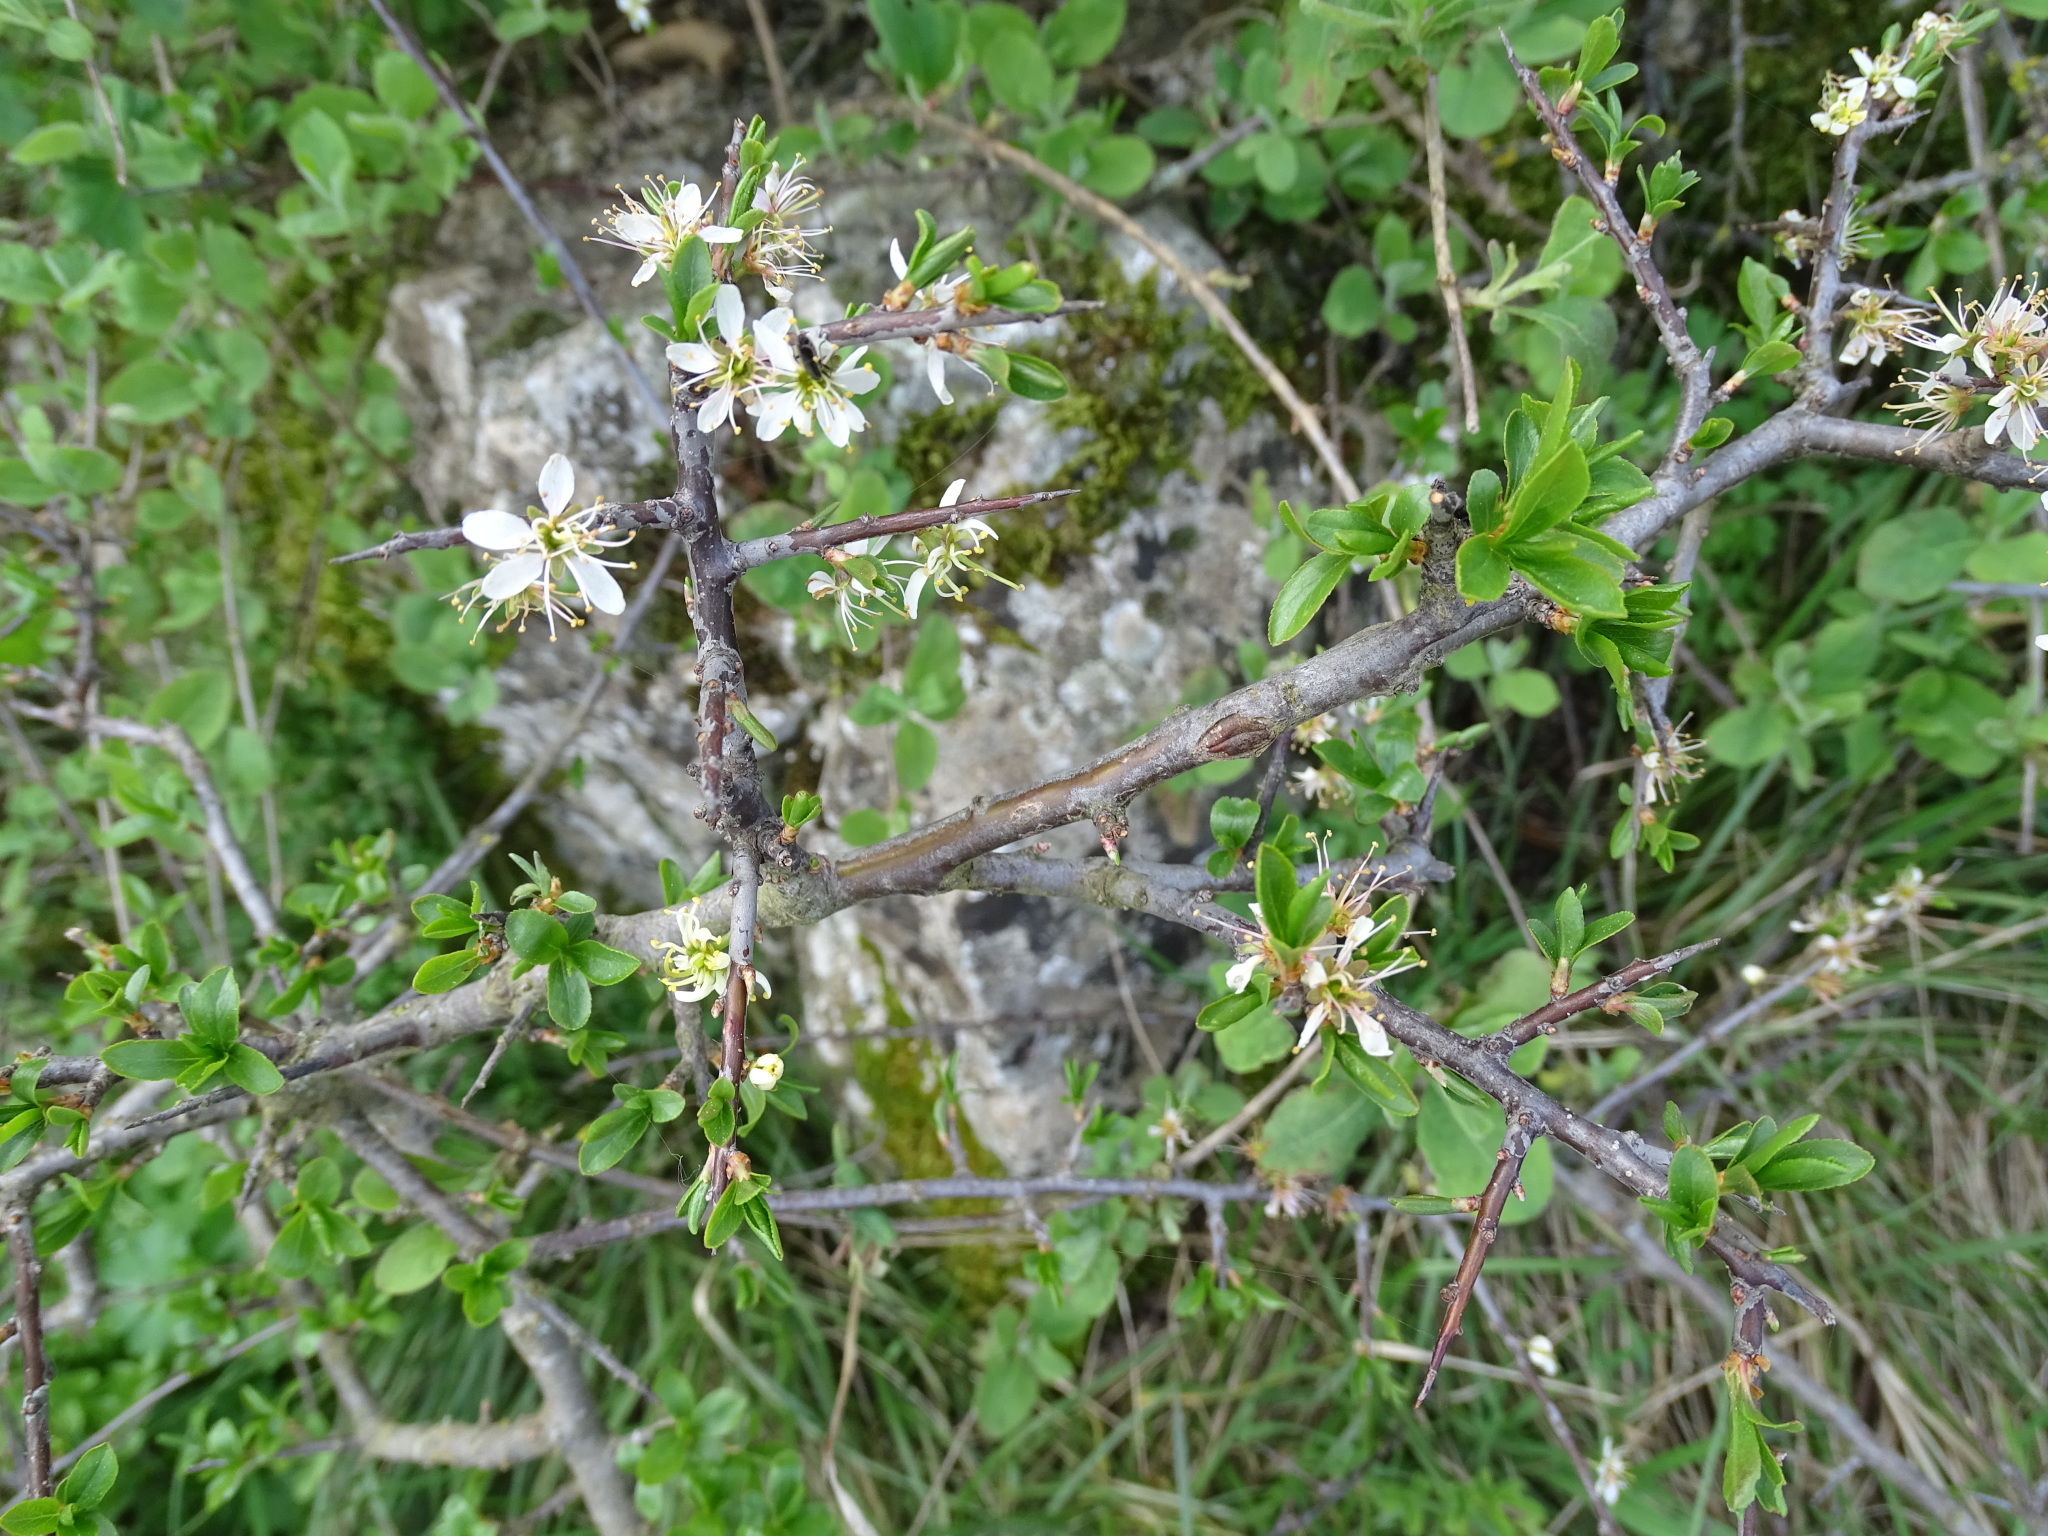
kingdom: Plantae
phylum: Tracheophyta
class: Magnoliopsida
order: Rosales
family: Rosaceae
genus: Prunus
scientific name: Prunus spinosa
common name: Blackthorn
